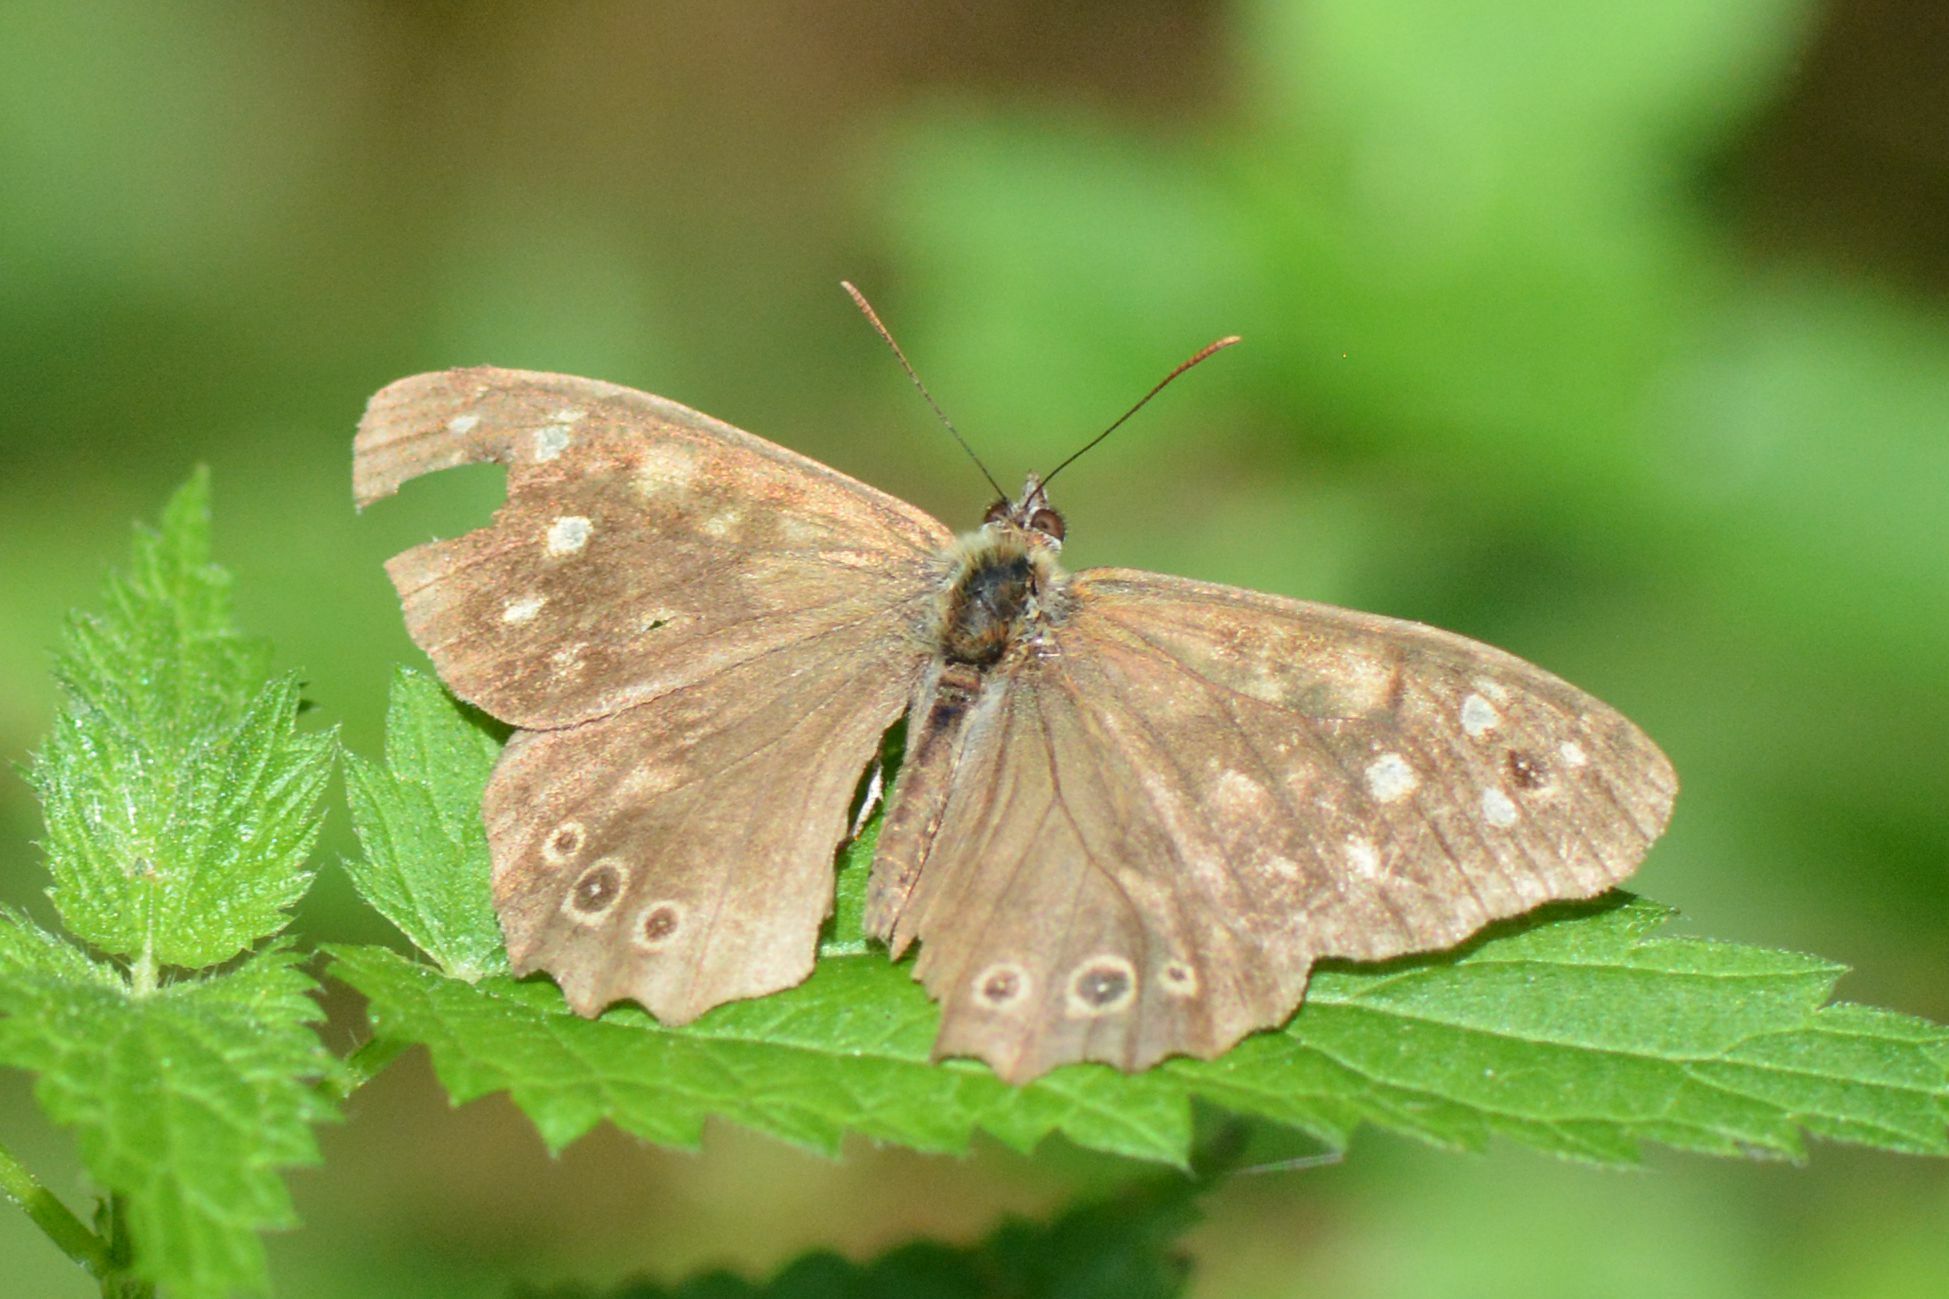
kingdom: Animalia
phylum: Arthropoda
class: Insecta
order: Lepidoptera
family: Nymphalidae
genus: Pararge
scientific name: Pararge aegeria
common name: Speckled wood
